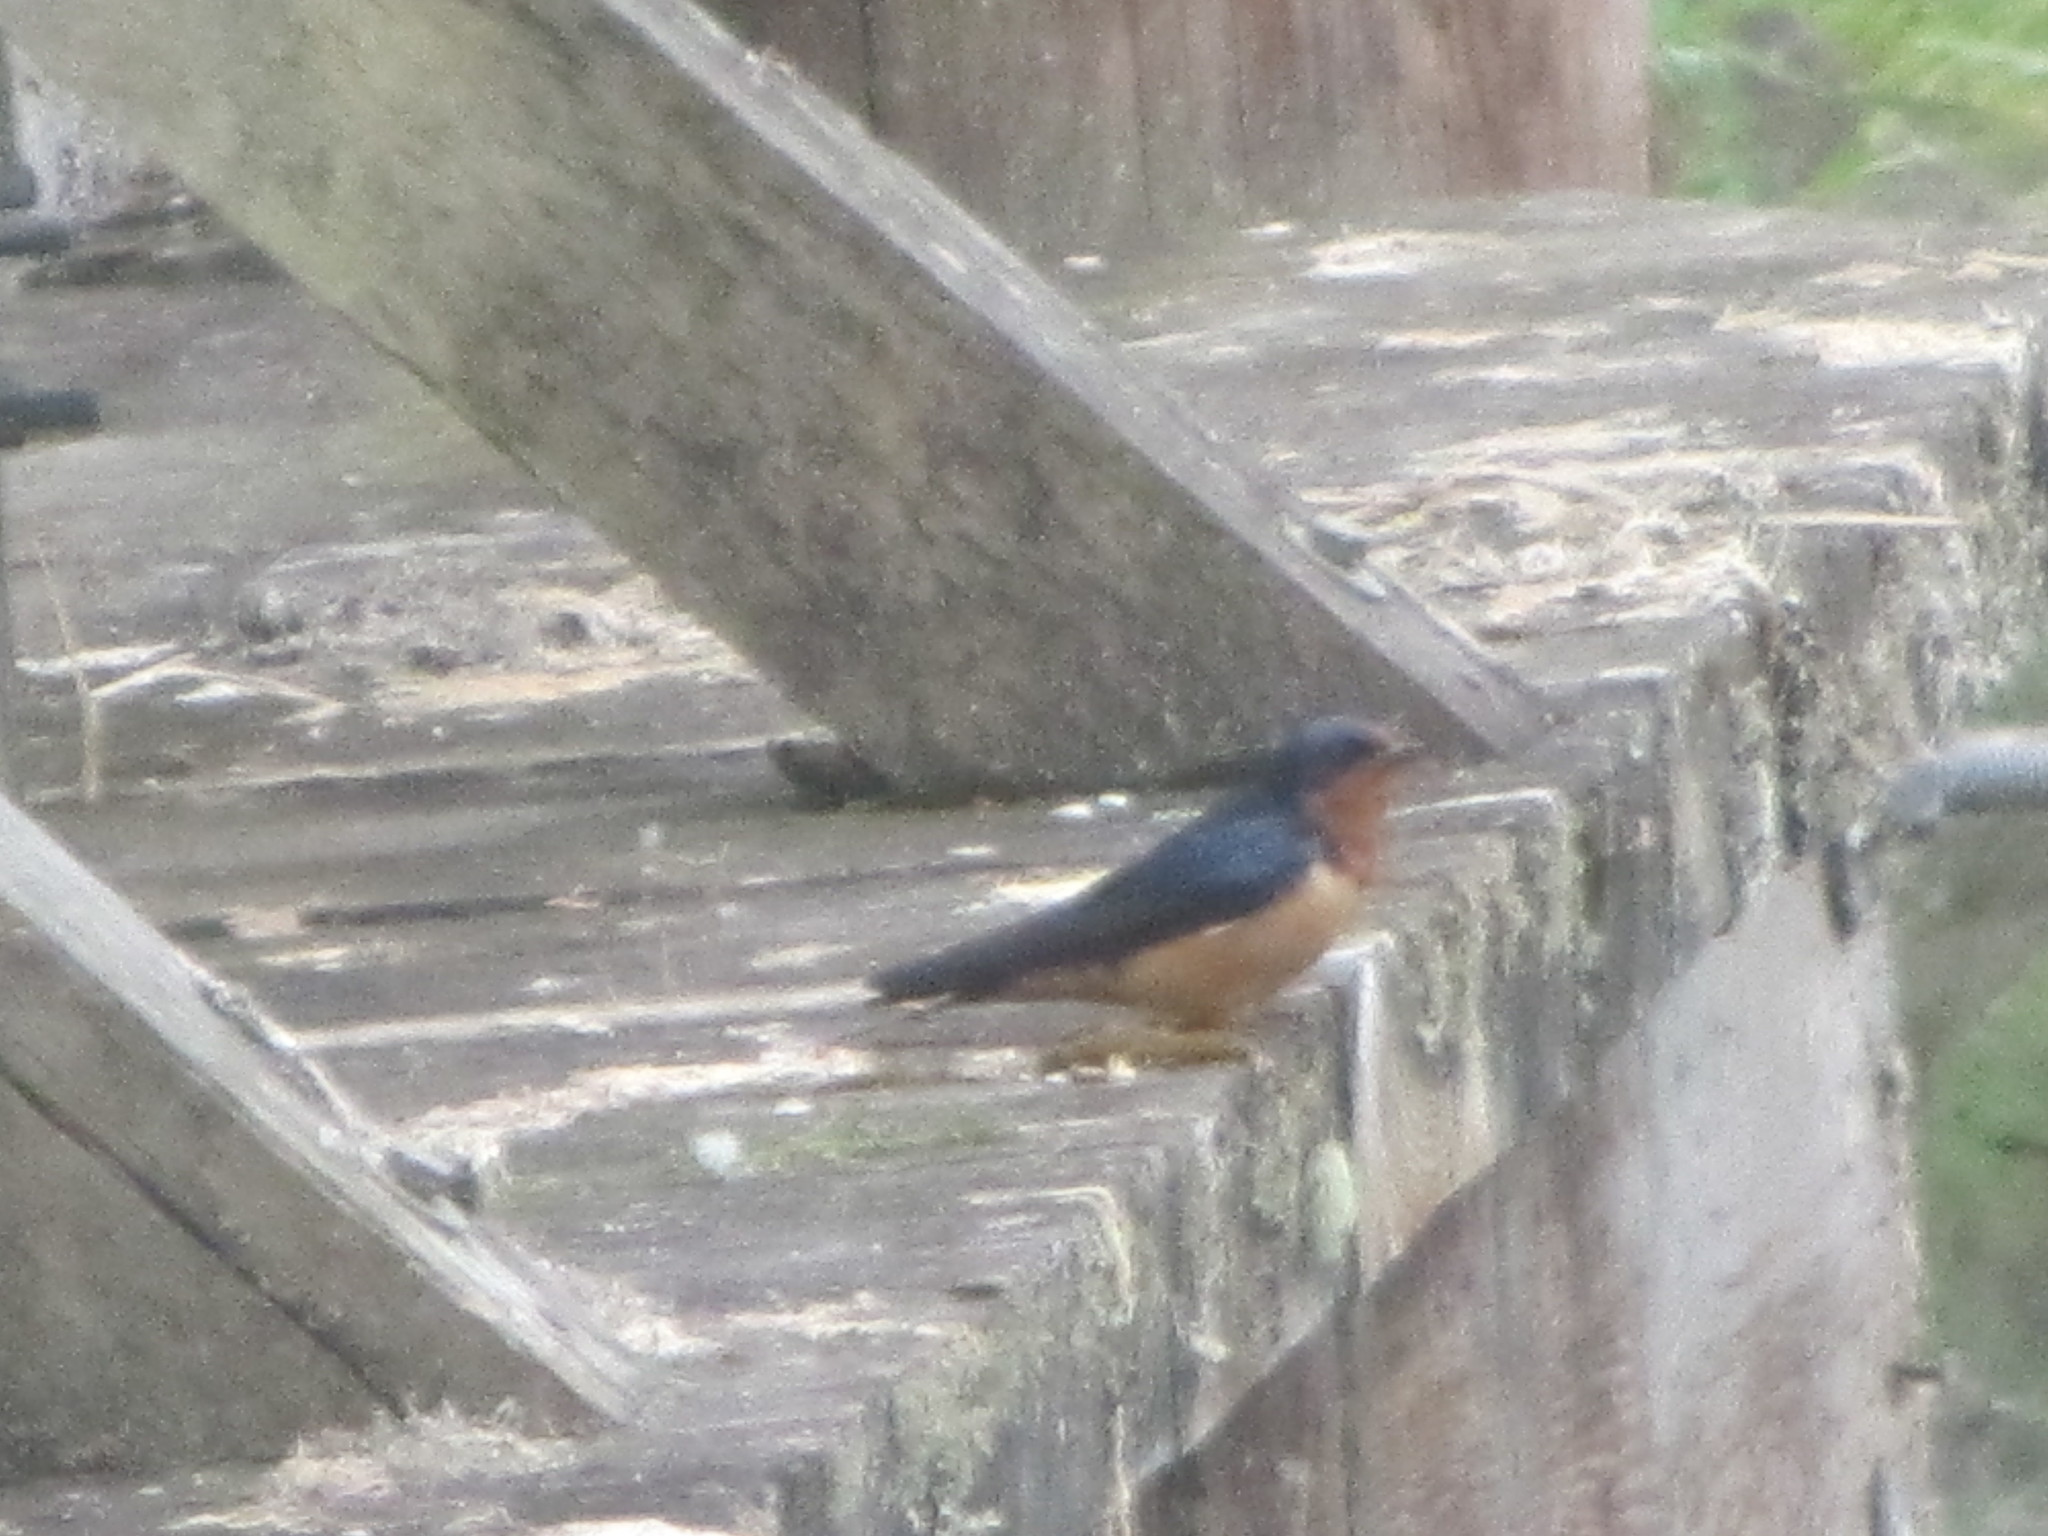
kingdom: Animalia
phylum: Chordata
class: Aves
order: Passeriformes
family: Hirundinidae
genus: Hirundo
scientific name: Hirundo rustica
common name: Barn swallow
